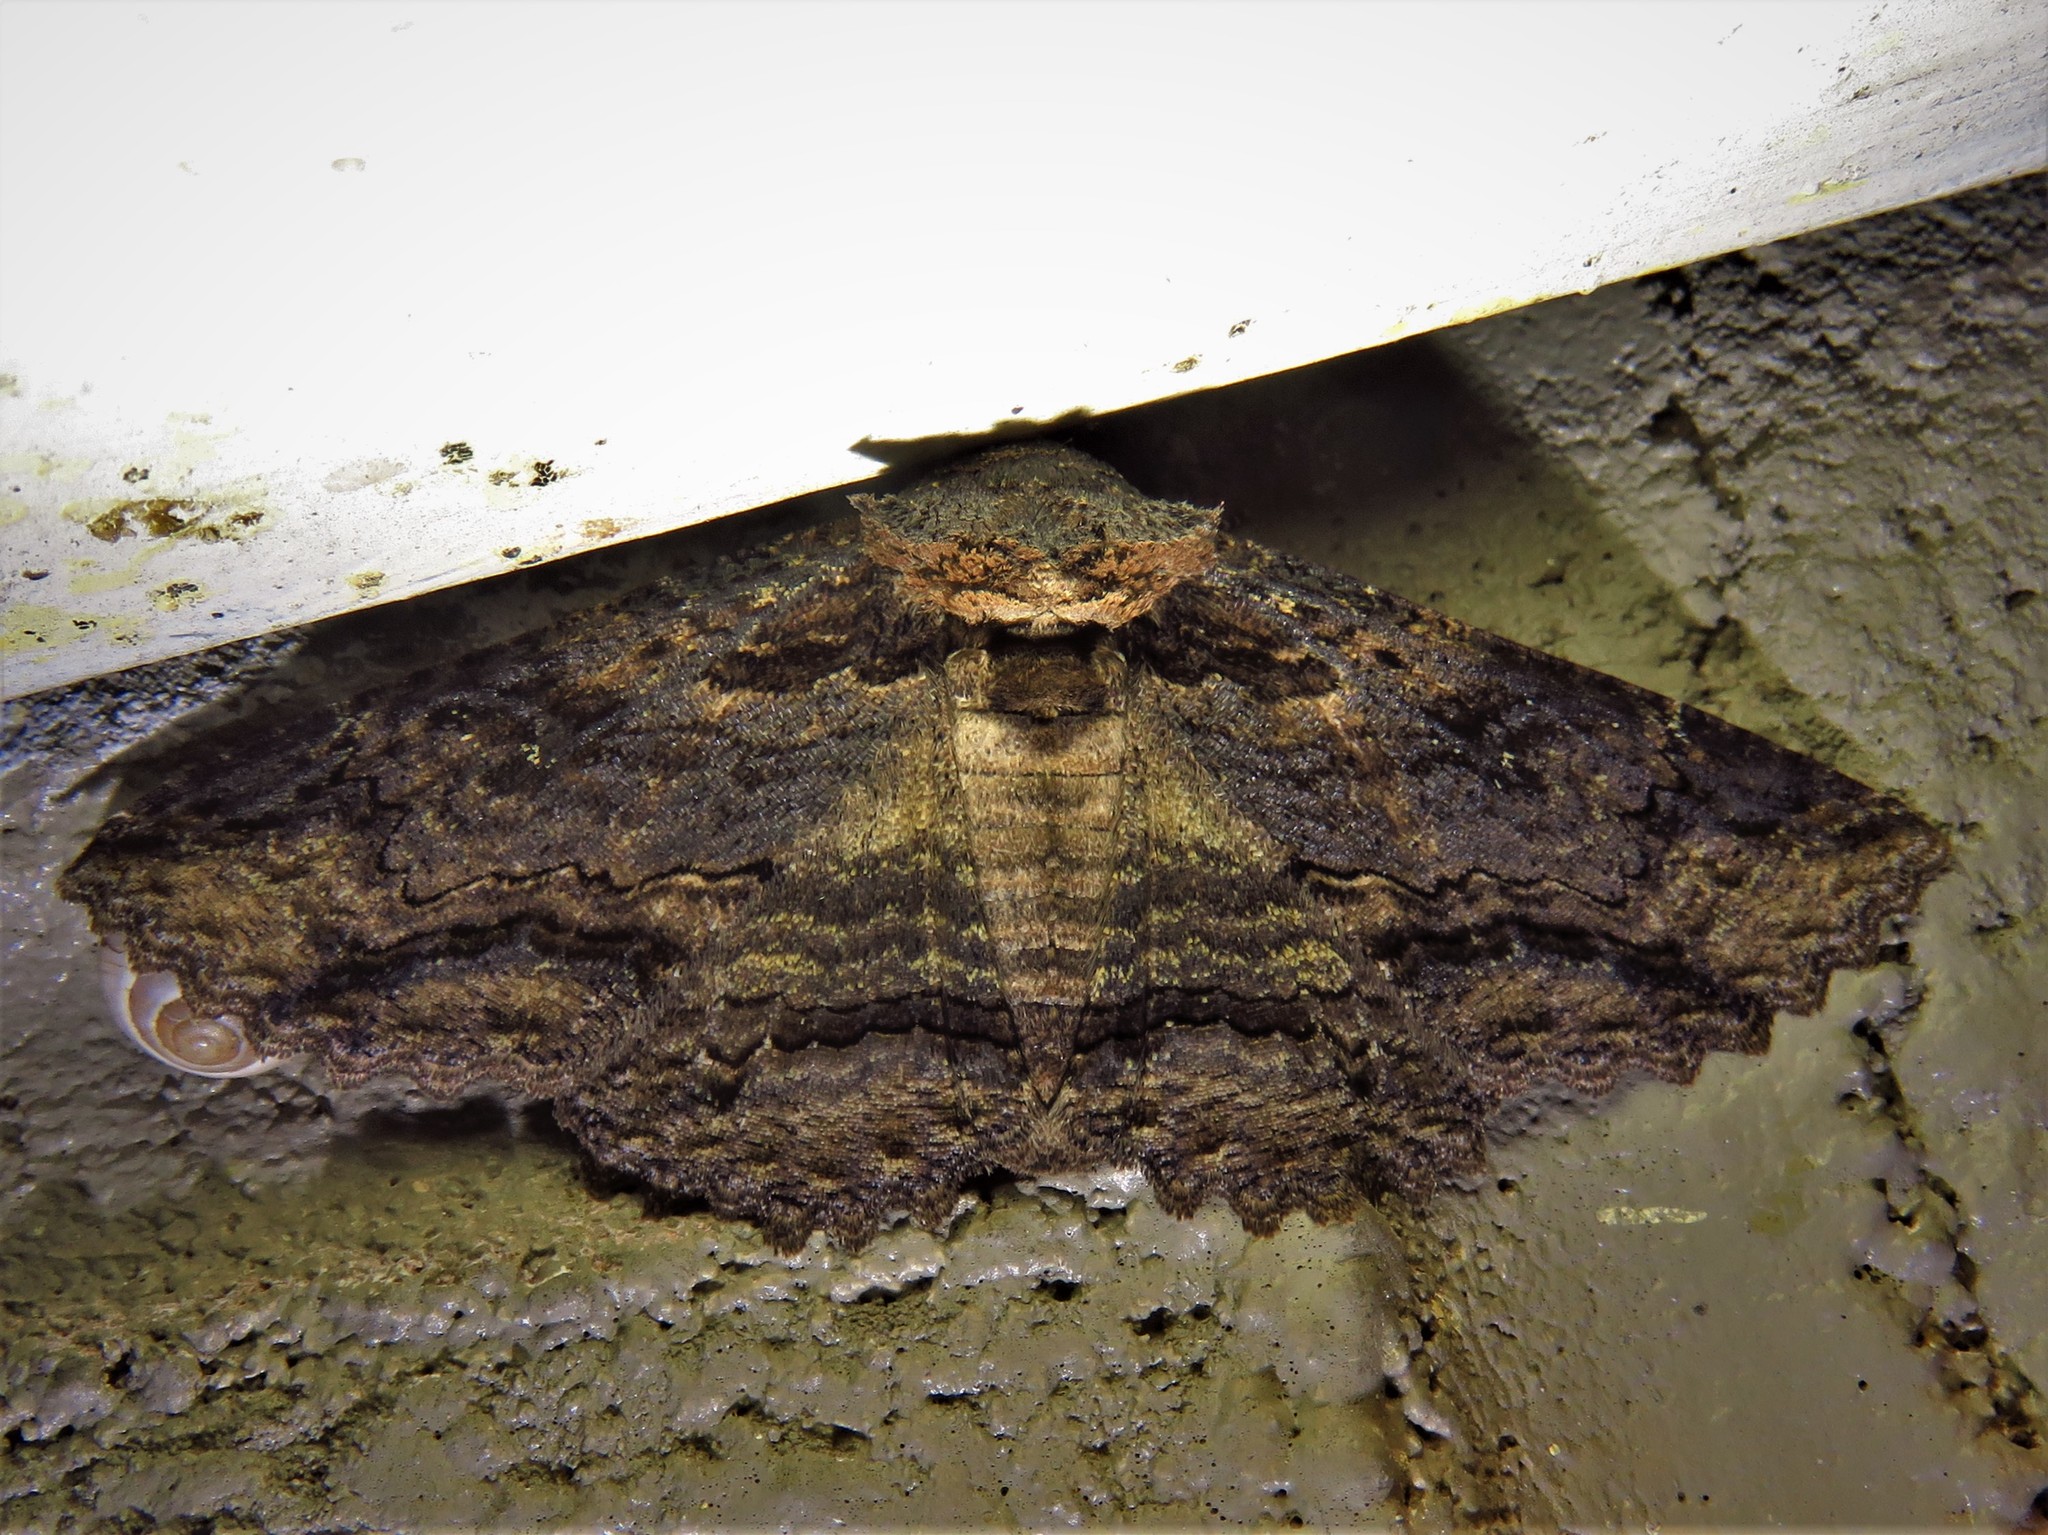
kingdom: Animalia
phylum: Arthropoda
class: Insecta
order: Lepidoptera
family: Erebidae
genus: Zale
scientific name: Zale lunata
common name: Lunate zale moth
